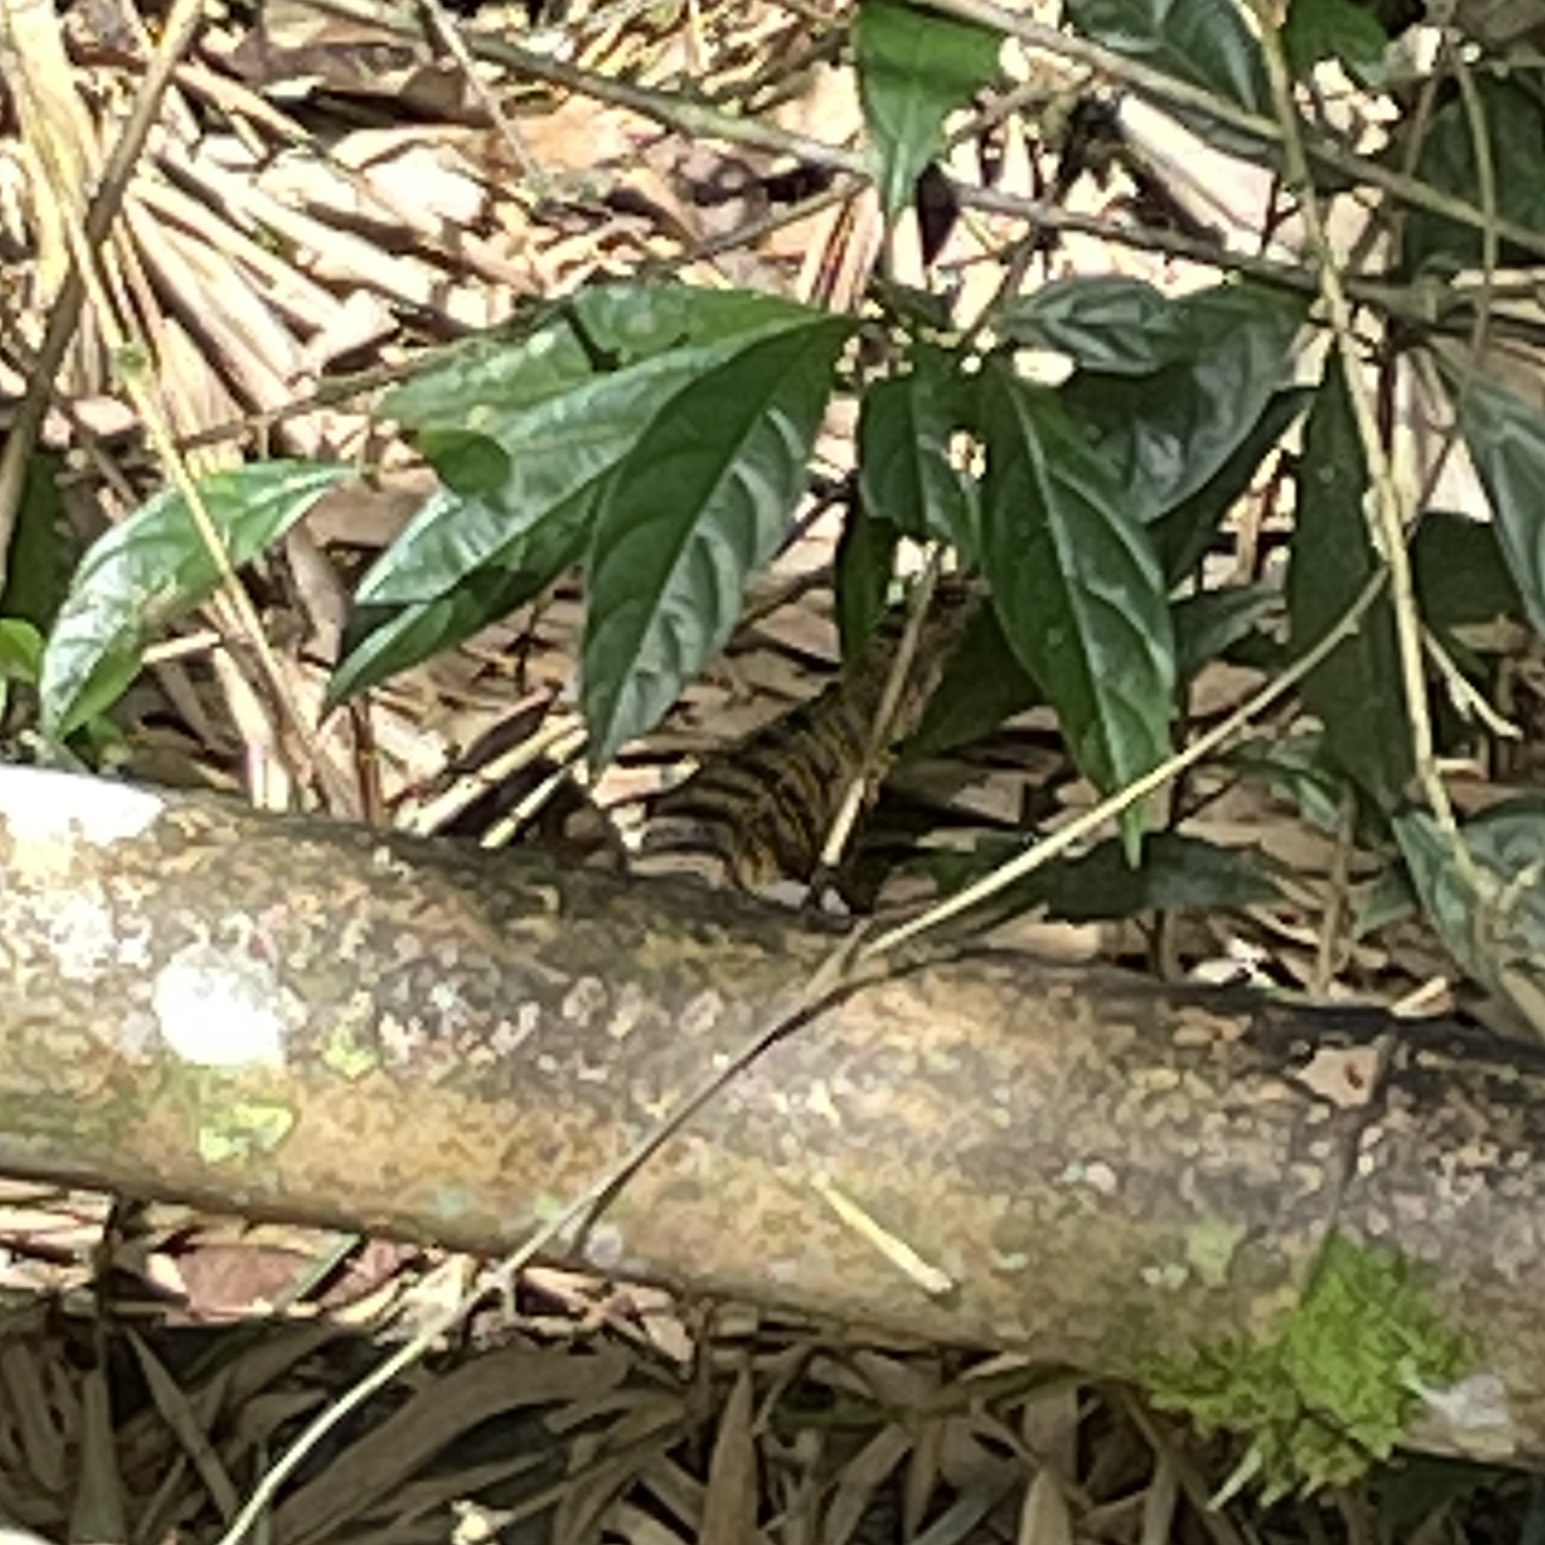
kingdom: Animalia
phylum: Chordata
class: Squamata
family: Teiidae
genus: Tupinambis
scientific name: Tupinambis cryptus
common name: Cryptic golden tegu
